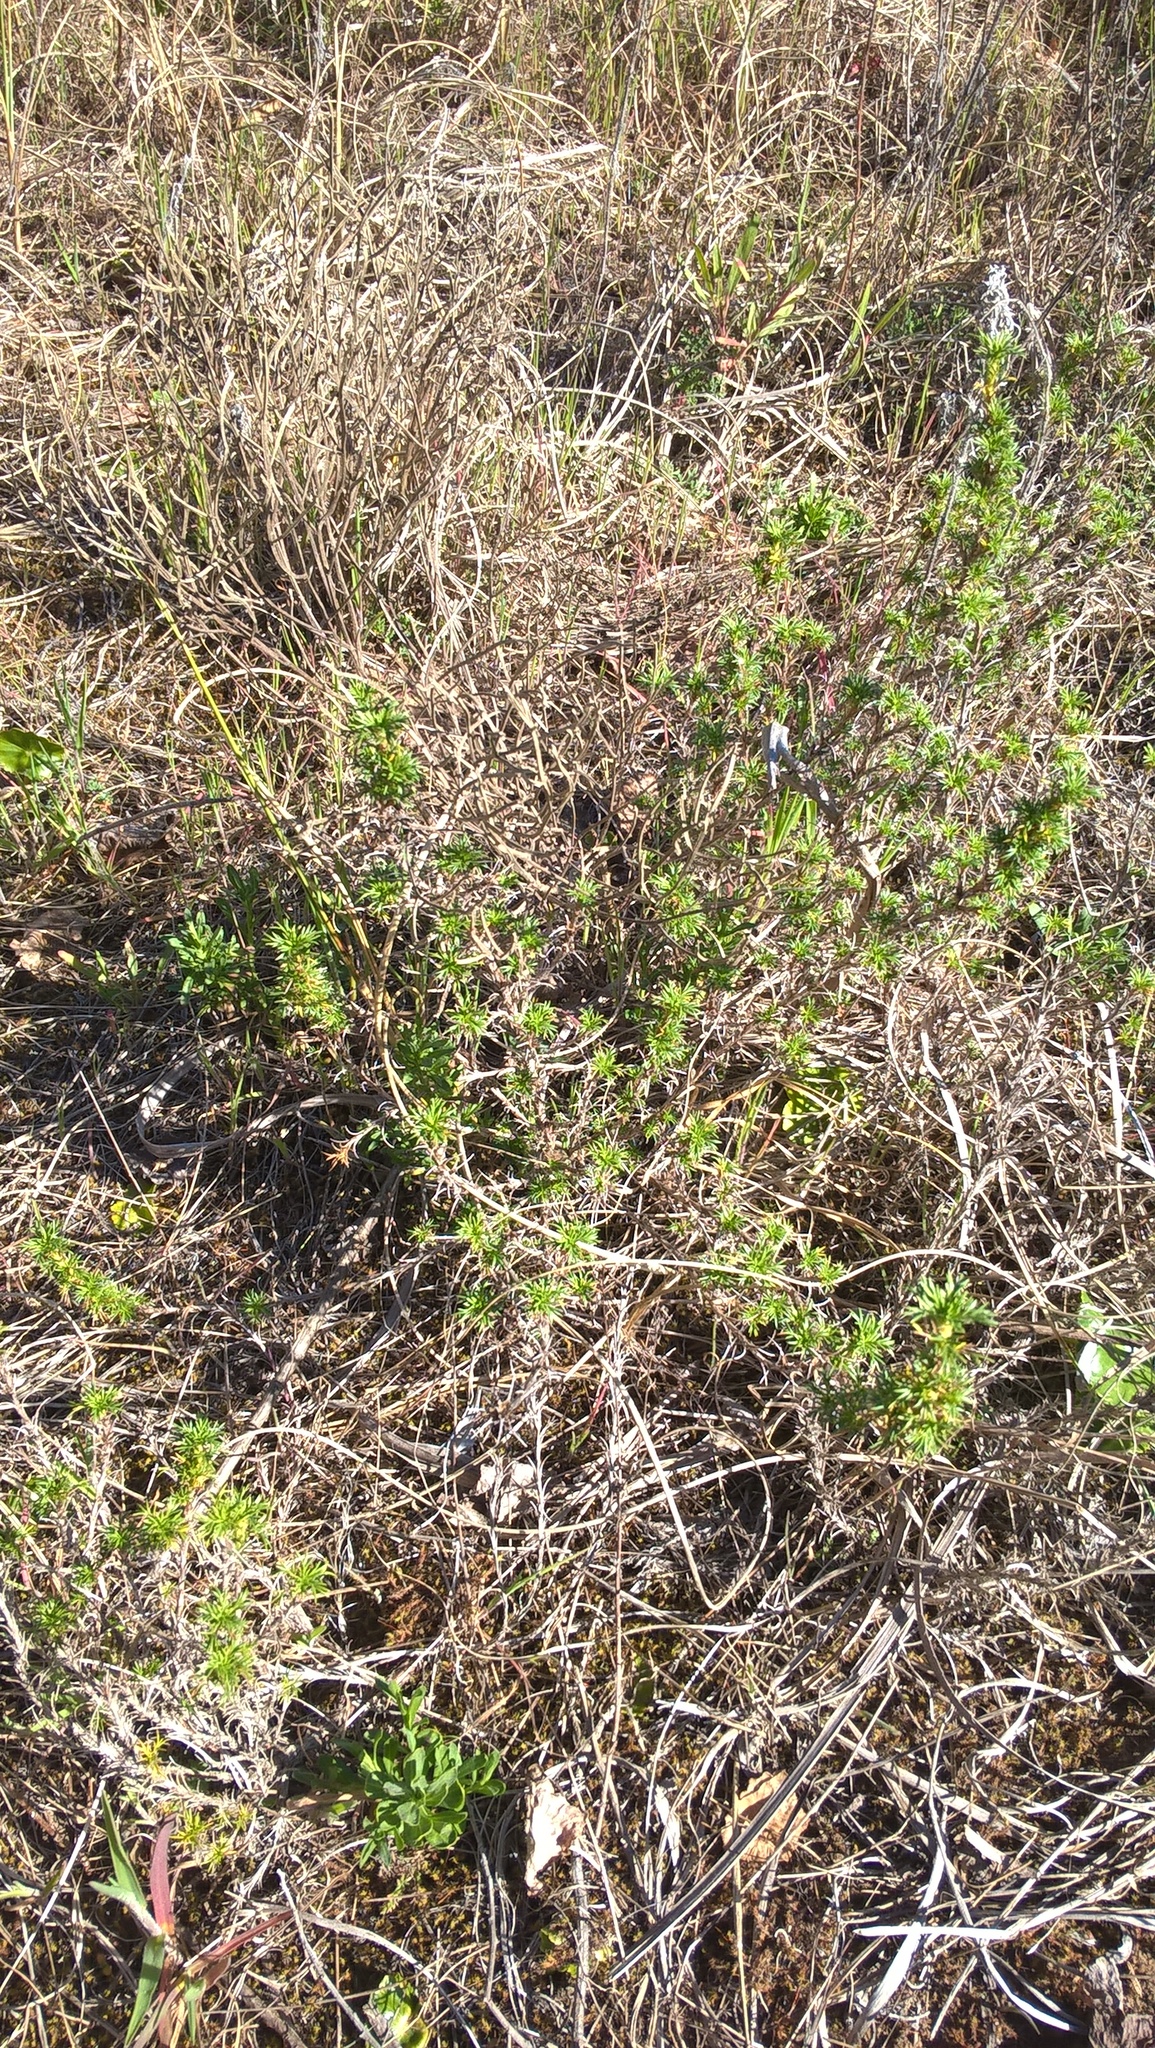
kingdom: Plantae
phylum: Tracheophyta
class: Magnoliopsida
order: Rosales
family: Rosaceae
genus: Margyricarpus
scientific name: Margyricarpus pinnatus
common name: Pearlfruit
